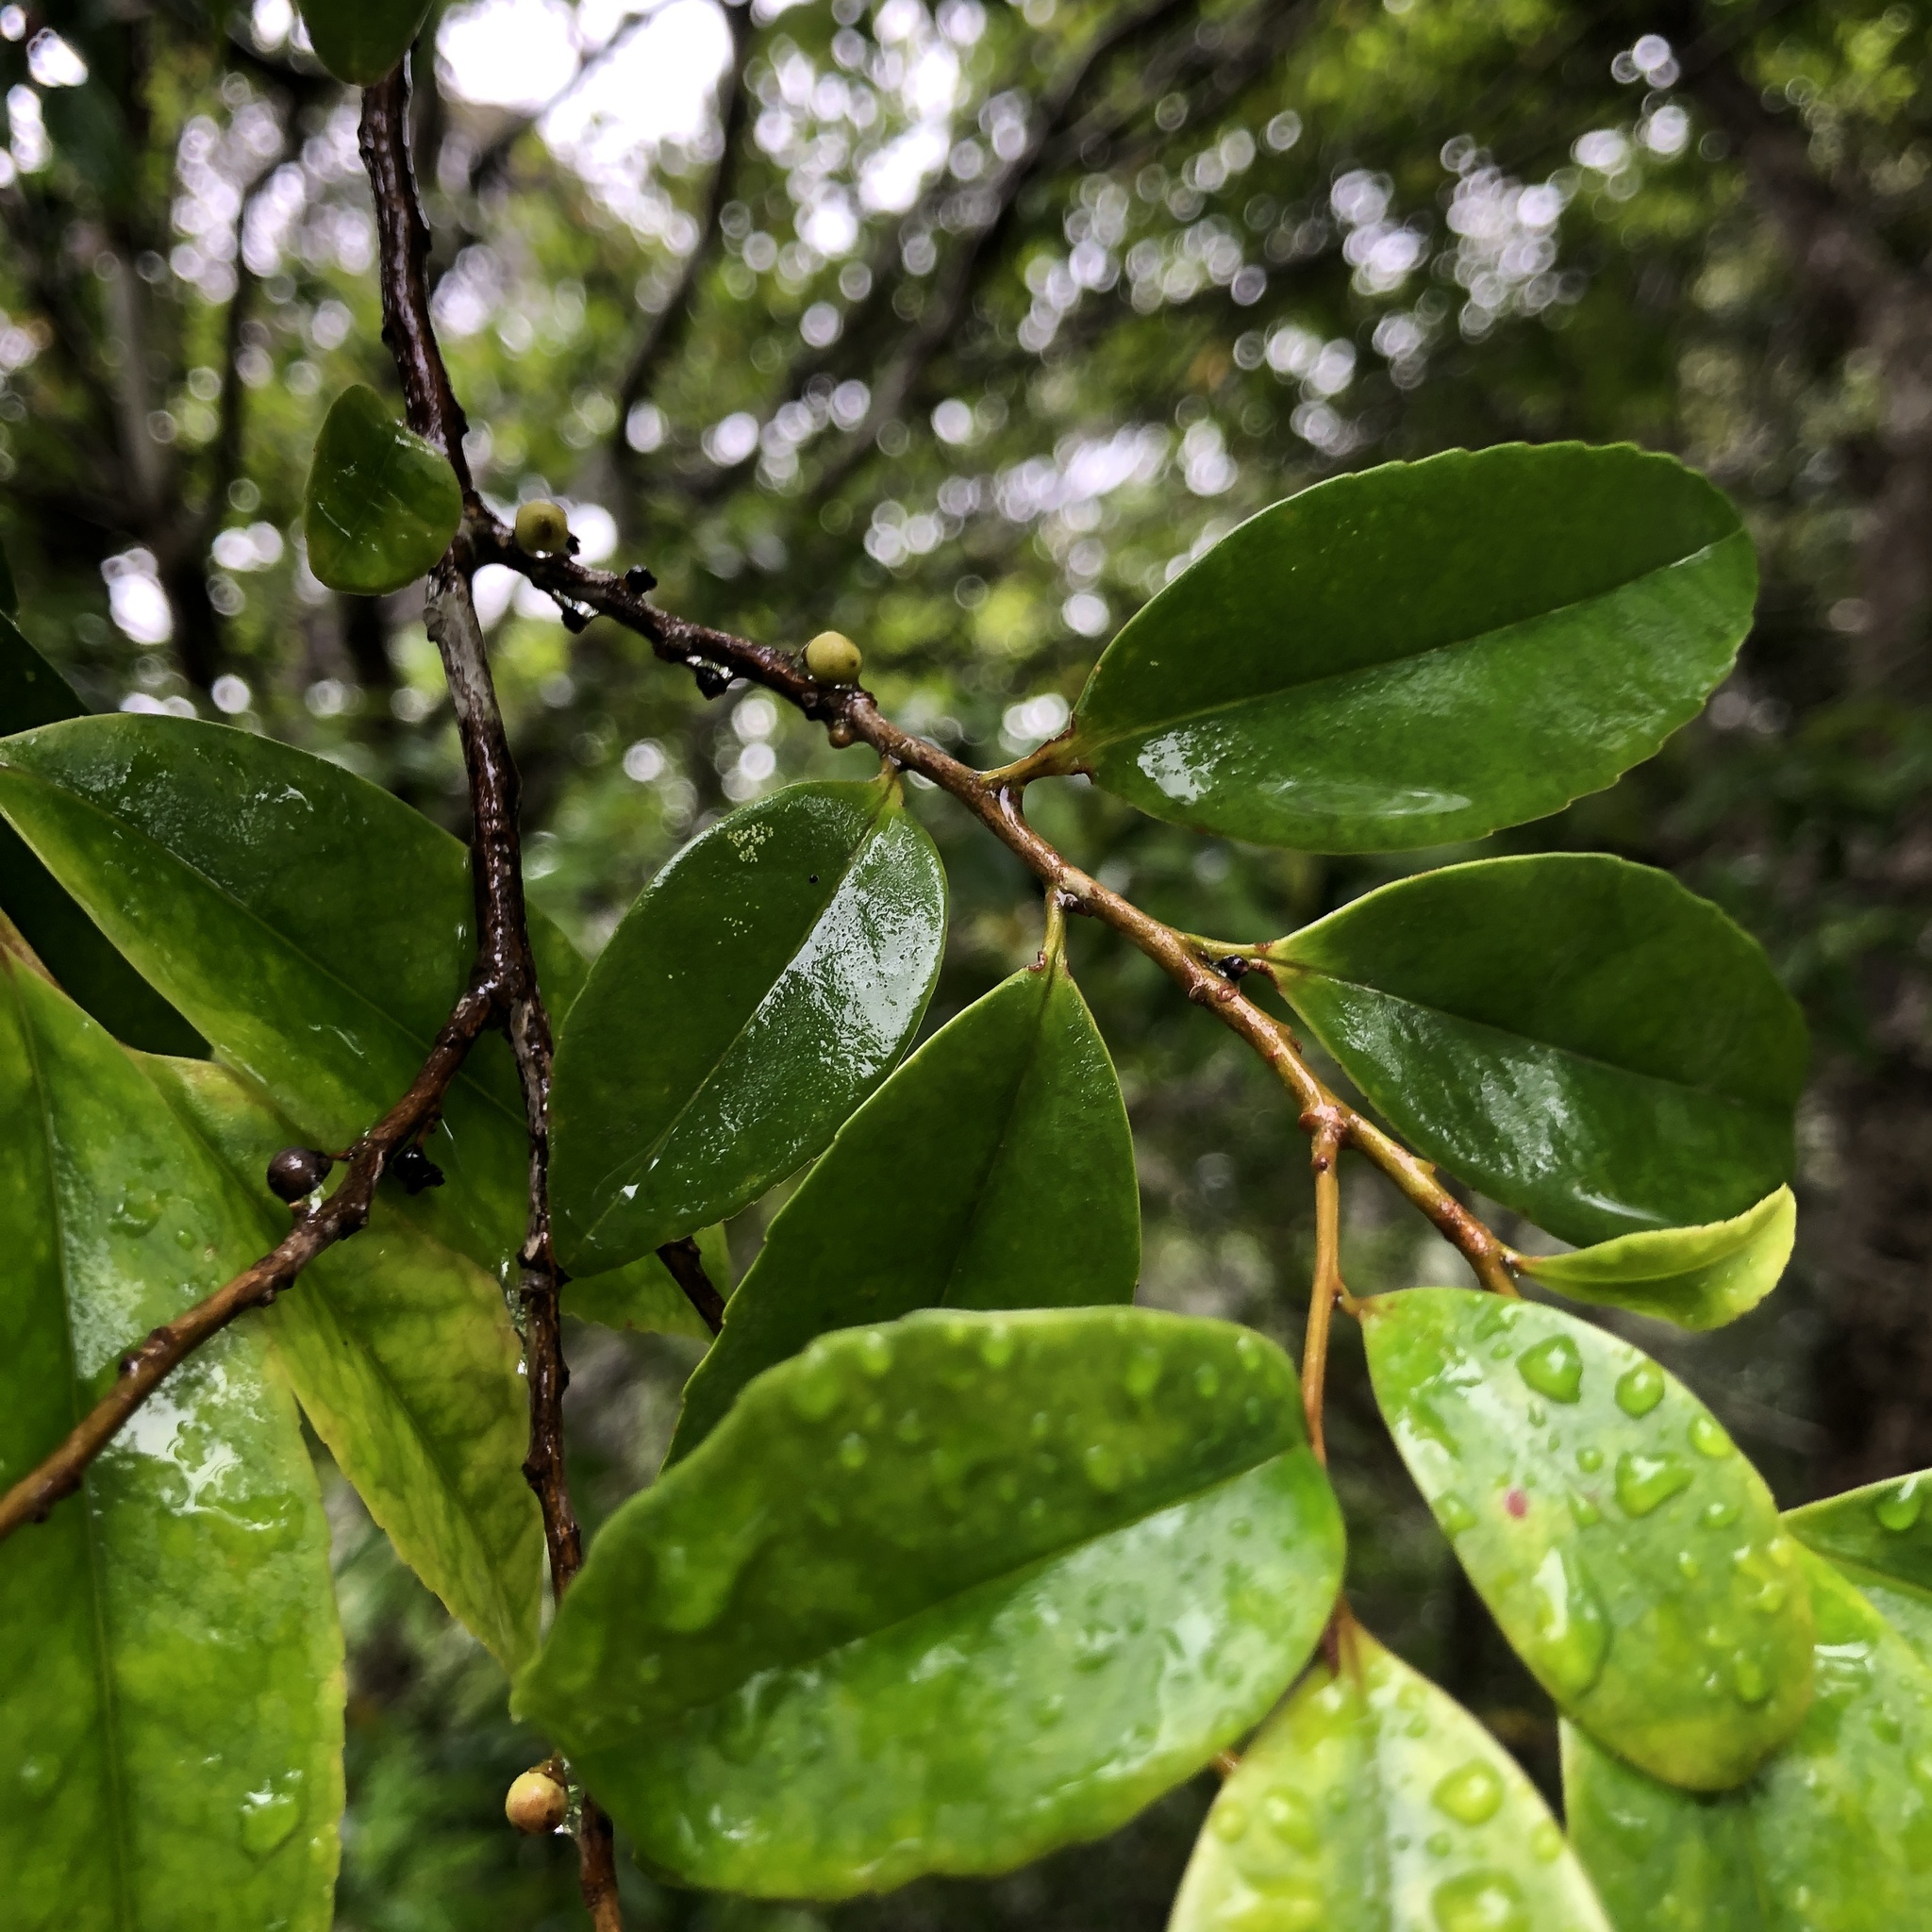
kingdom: Plantae
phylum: Tracheophyta
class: Magnoliopsida
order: Ericales
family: Pentaphylacaceae
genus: Eurya
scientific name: Eurya japonica
